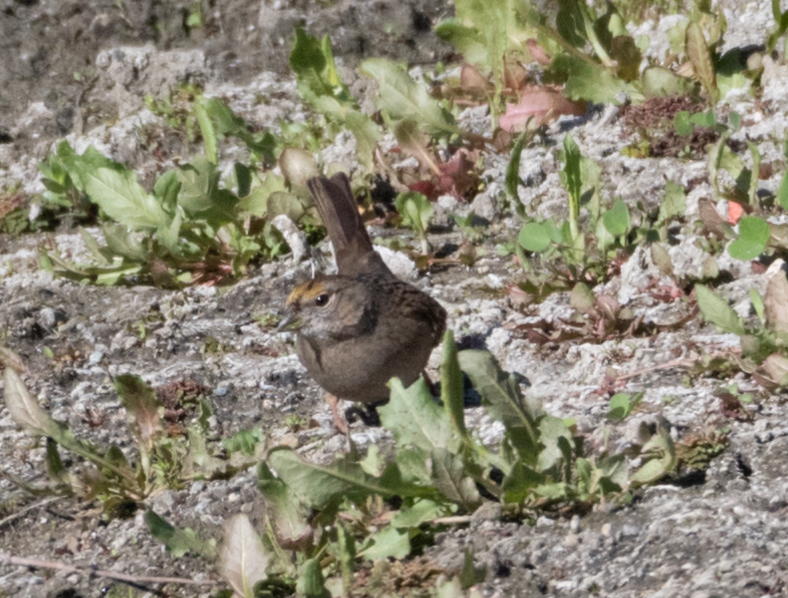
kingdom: Animalia
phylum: Chordata
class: Aves
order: Passeriformes
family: Passerellidae
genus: Zonotrichia
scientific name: Zonotrichia atricapilla
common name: Golden-crowned sparrow
